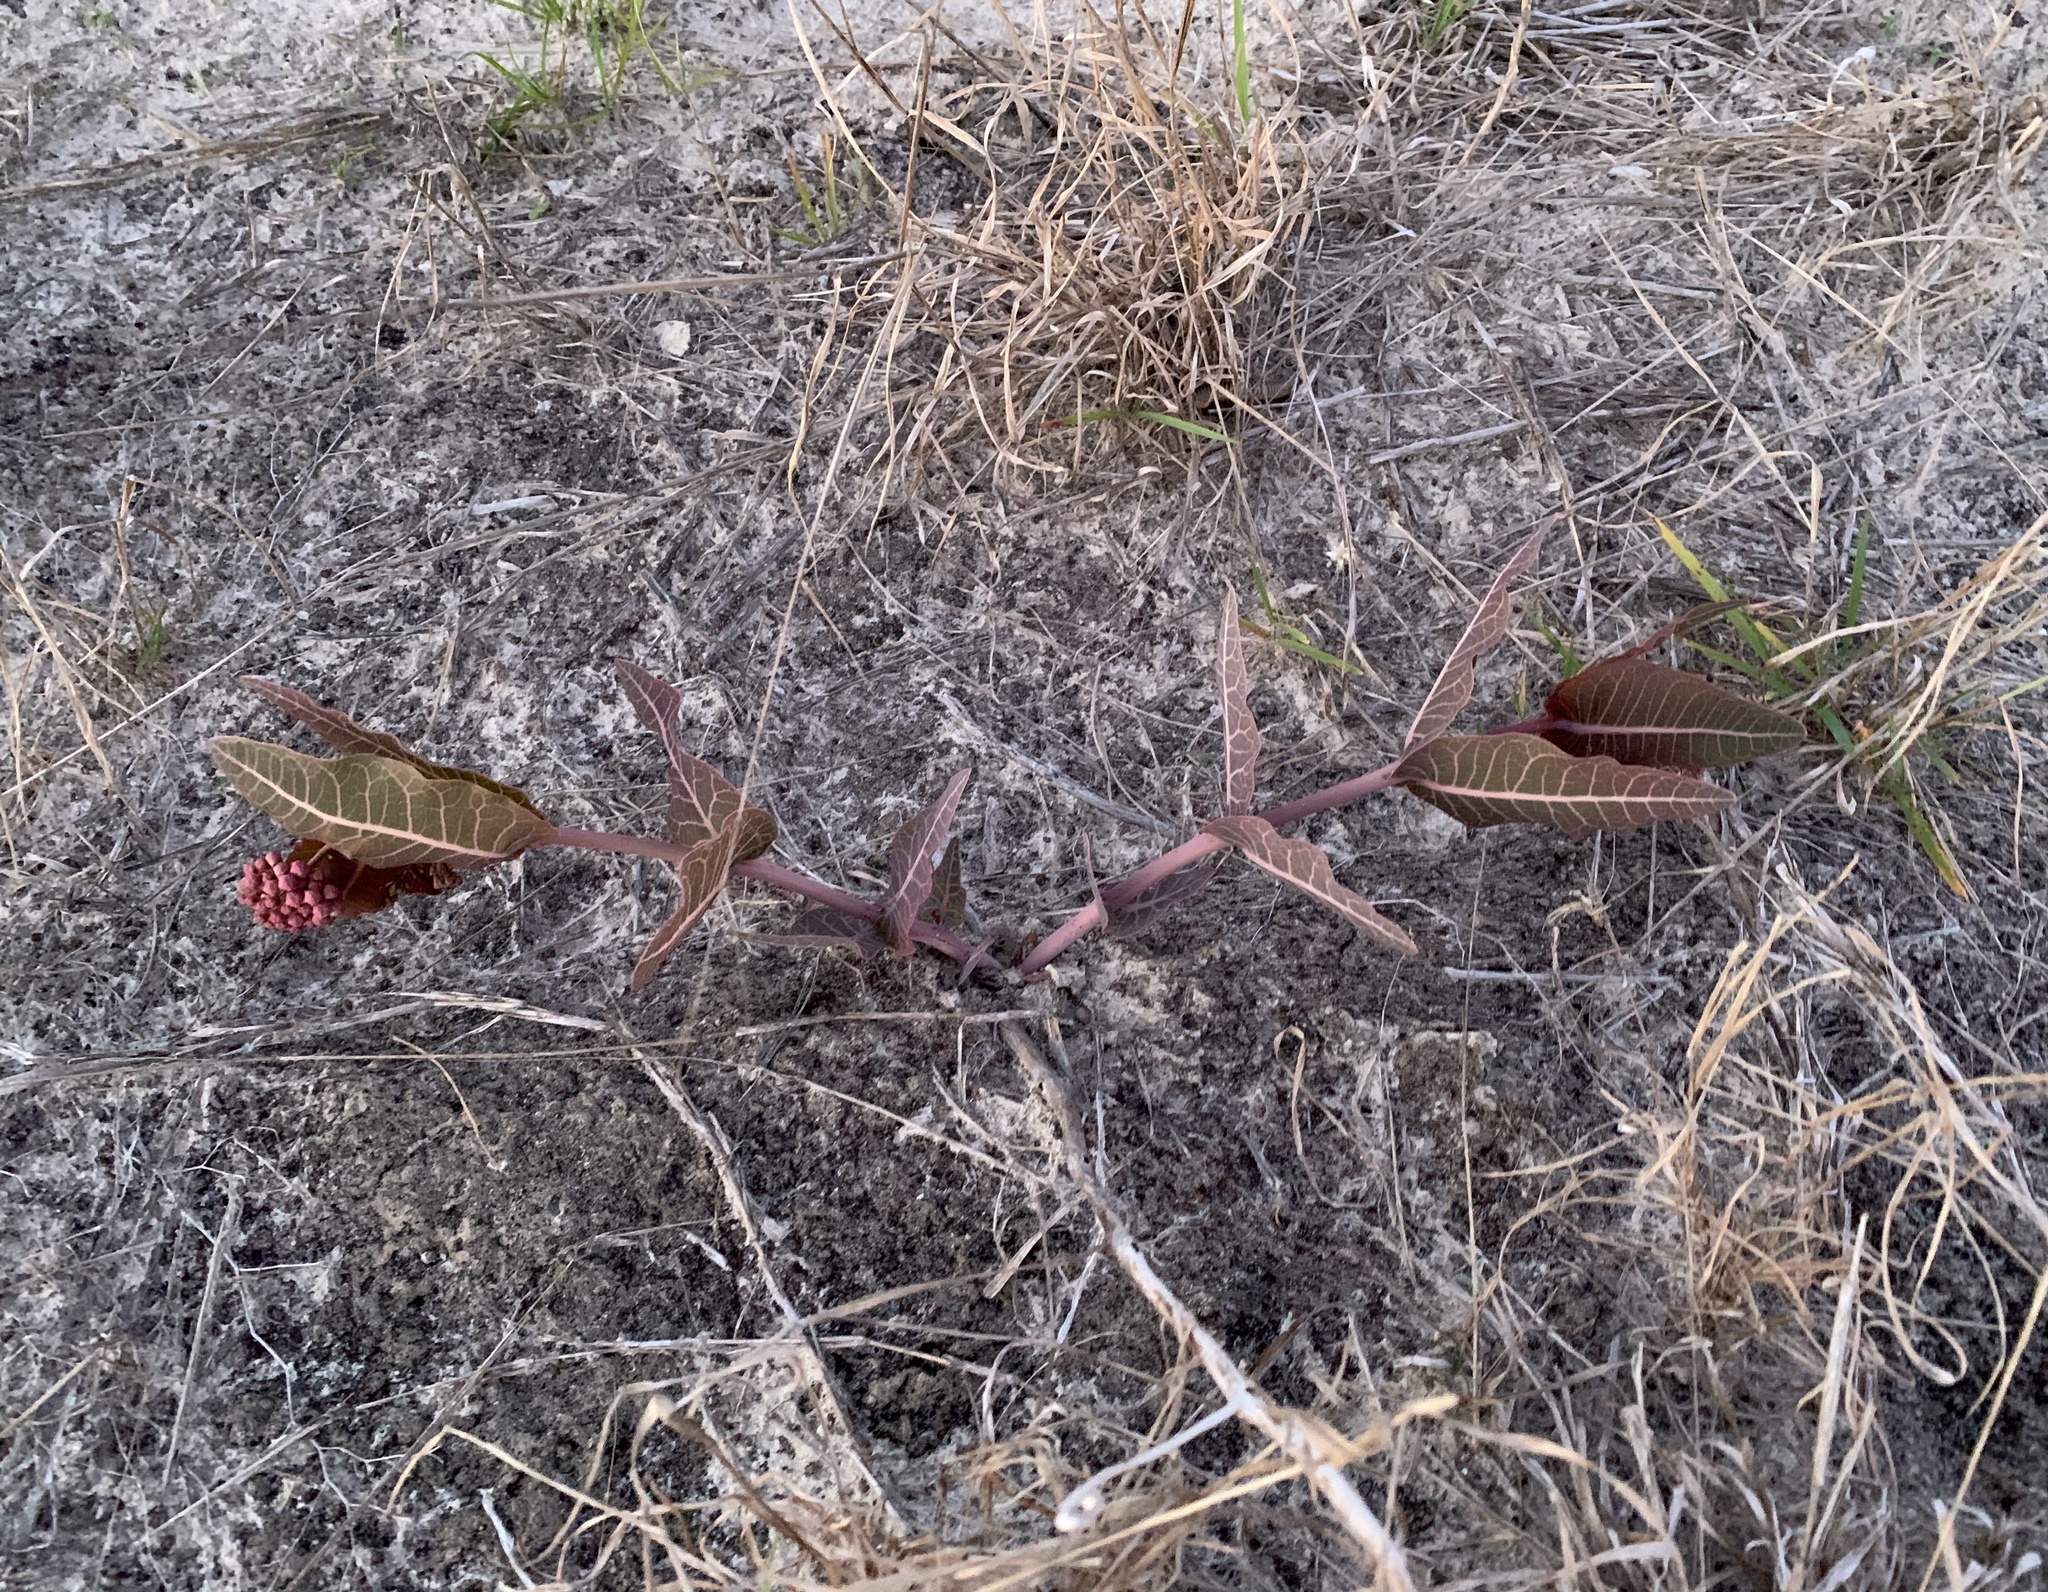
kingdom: Plantae
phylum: Tracheophyta
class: Magnoliopsida
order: Gentianales
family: Apocynaceae
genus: Asclepias
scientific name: Asclepias humistrata
